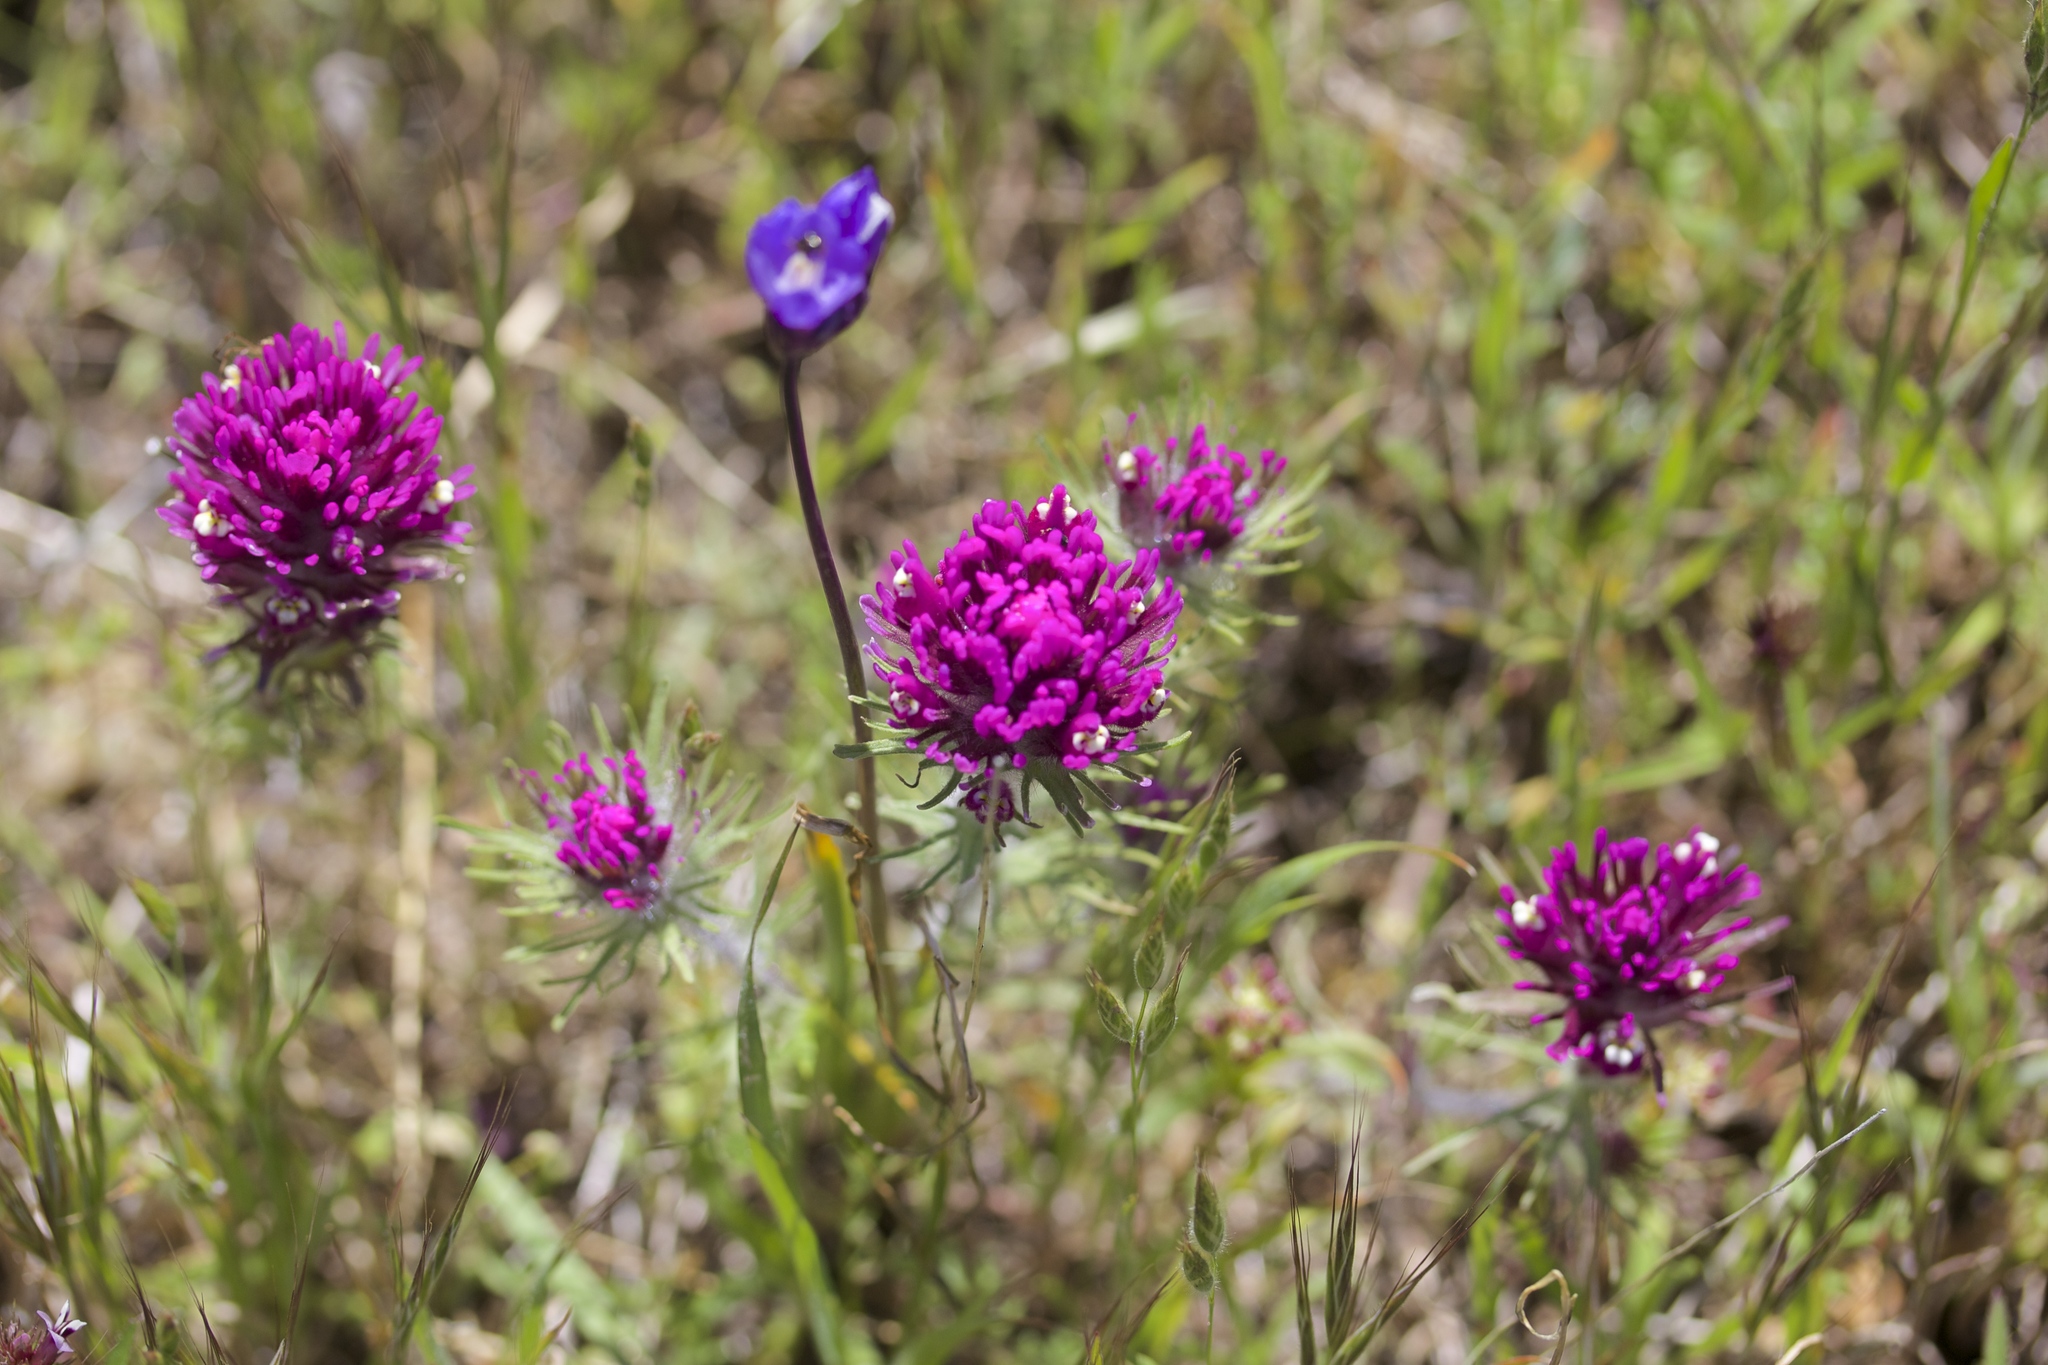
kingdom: Plantae
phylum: Tracheophyta
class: Magnoliopsida
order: Lamiales
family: Orobanchaceae
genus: Castilleja
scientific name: Castilleja exserta
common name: Purple owl-clover
